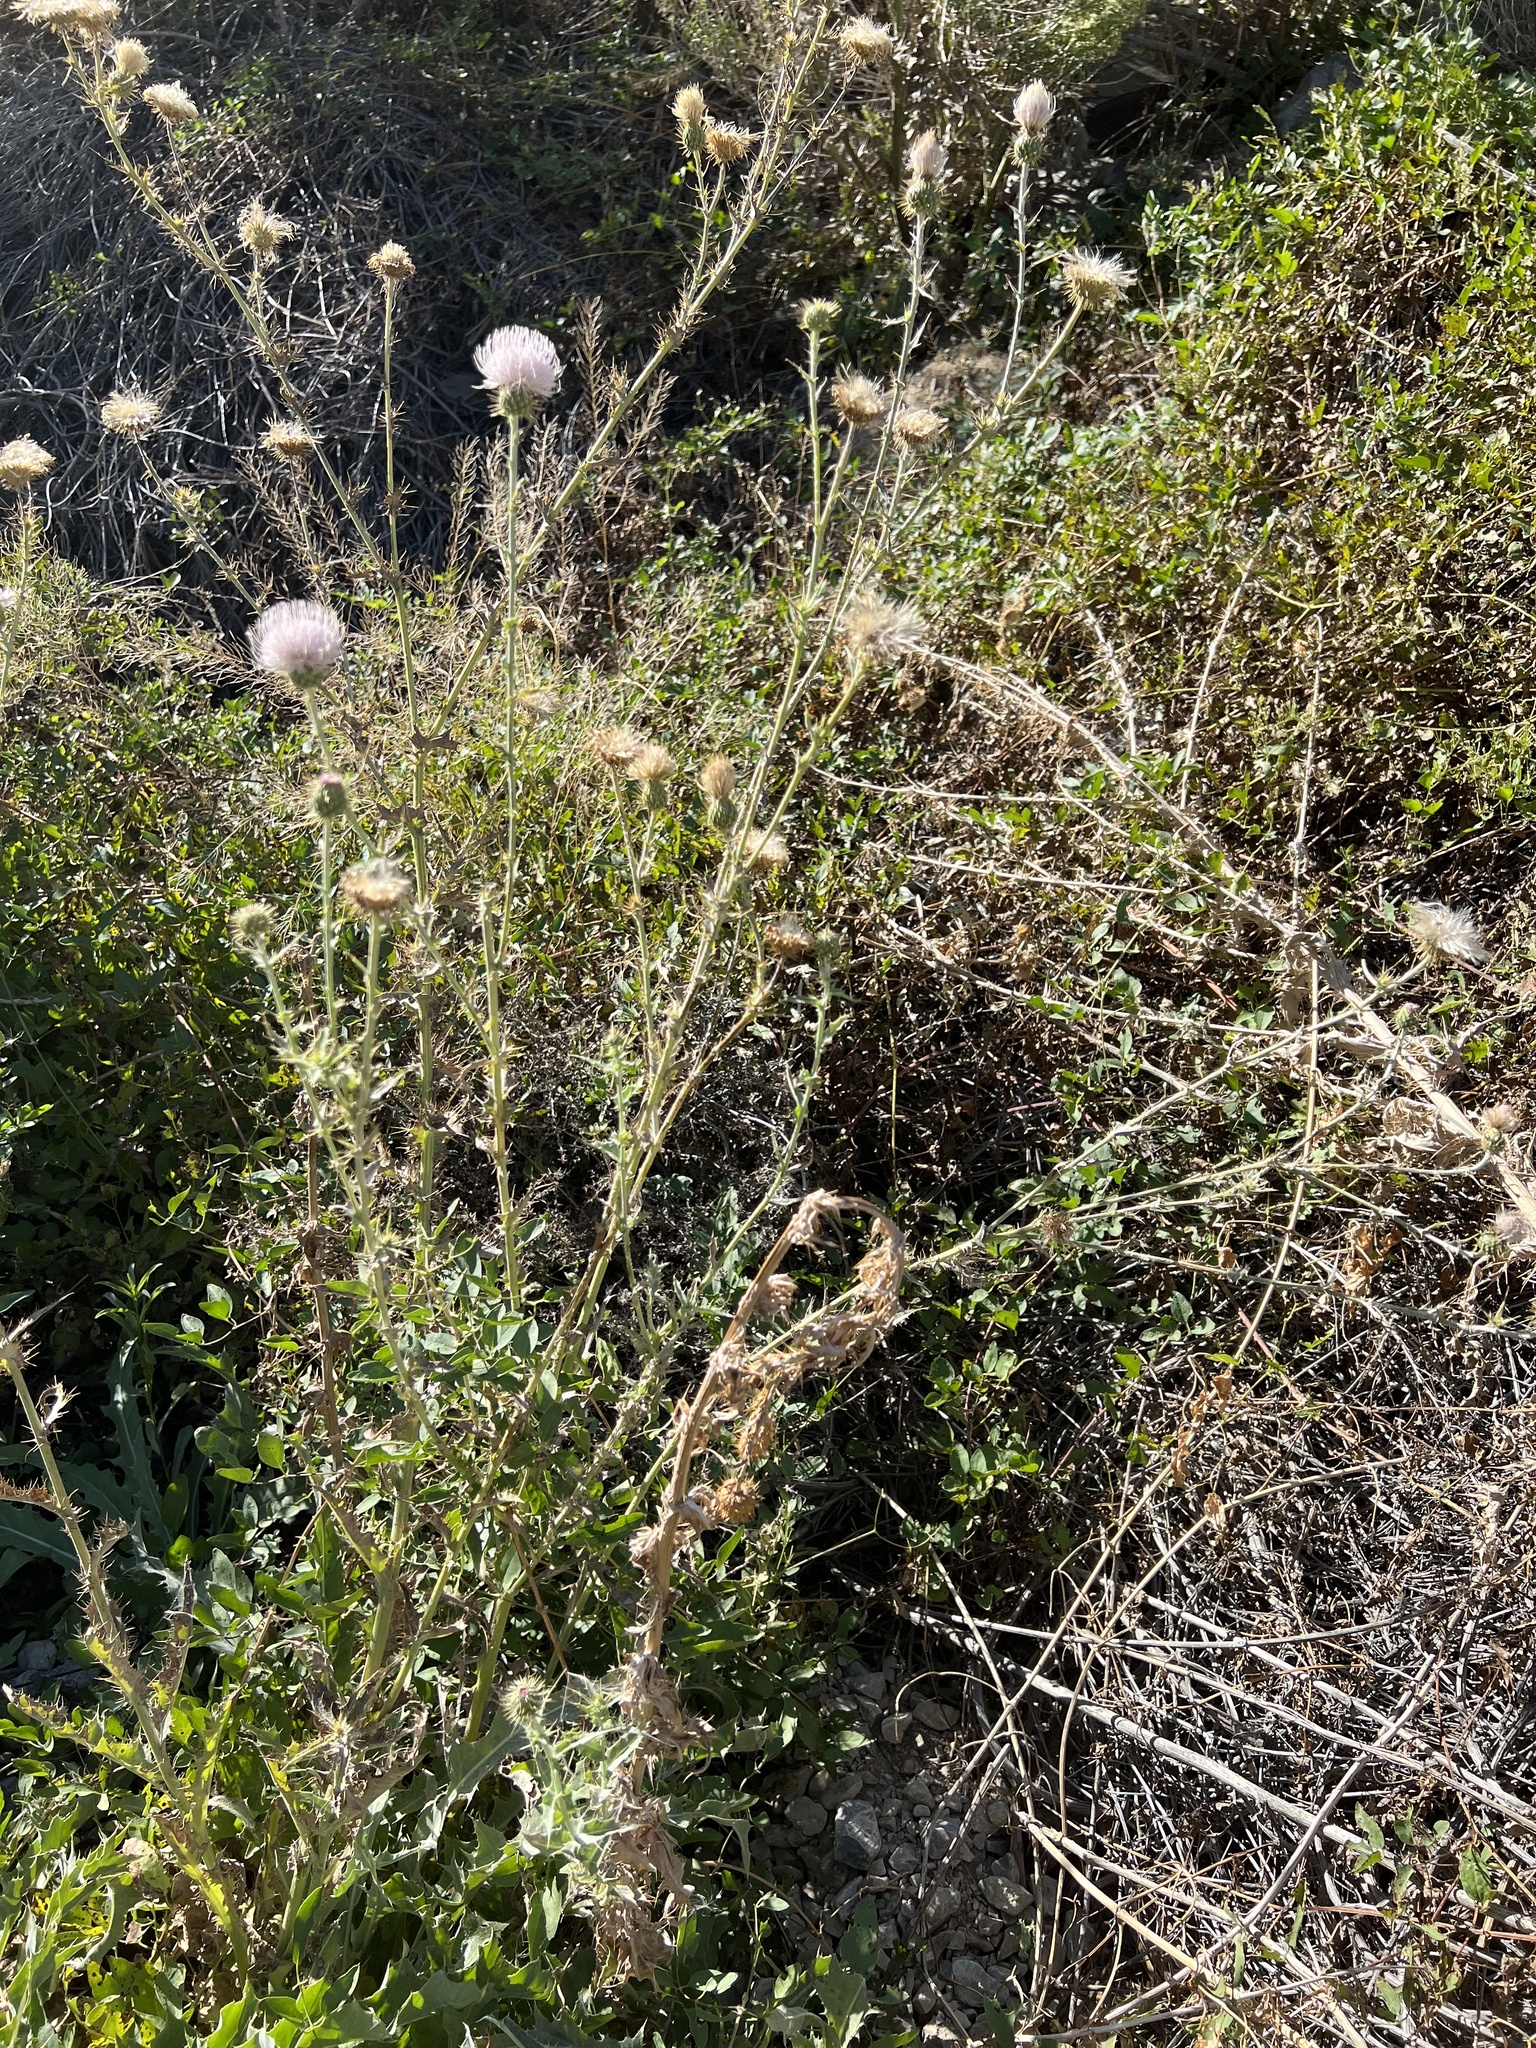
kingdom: Plantae
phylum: Tracheophyta
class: Magnoliopsida
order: Asterales
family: Asteraceae
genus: Cirsium
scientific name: Cirsium mohavense
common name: Mojave thistle
